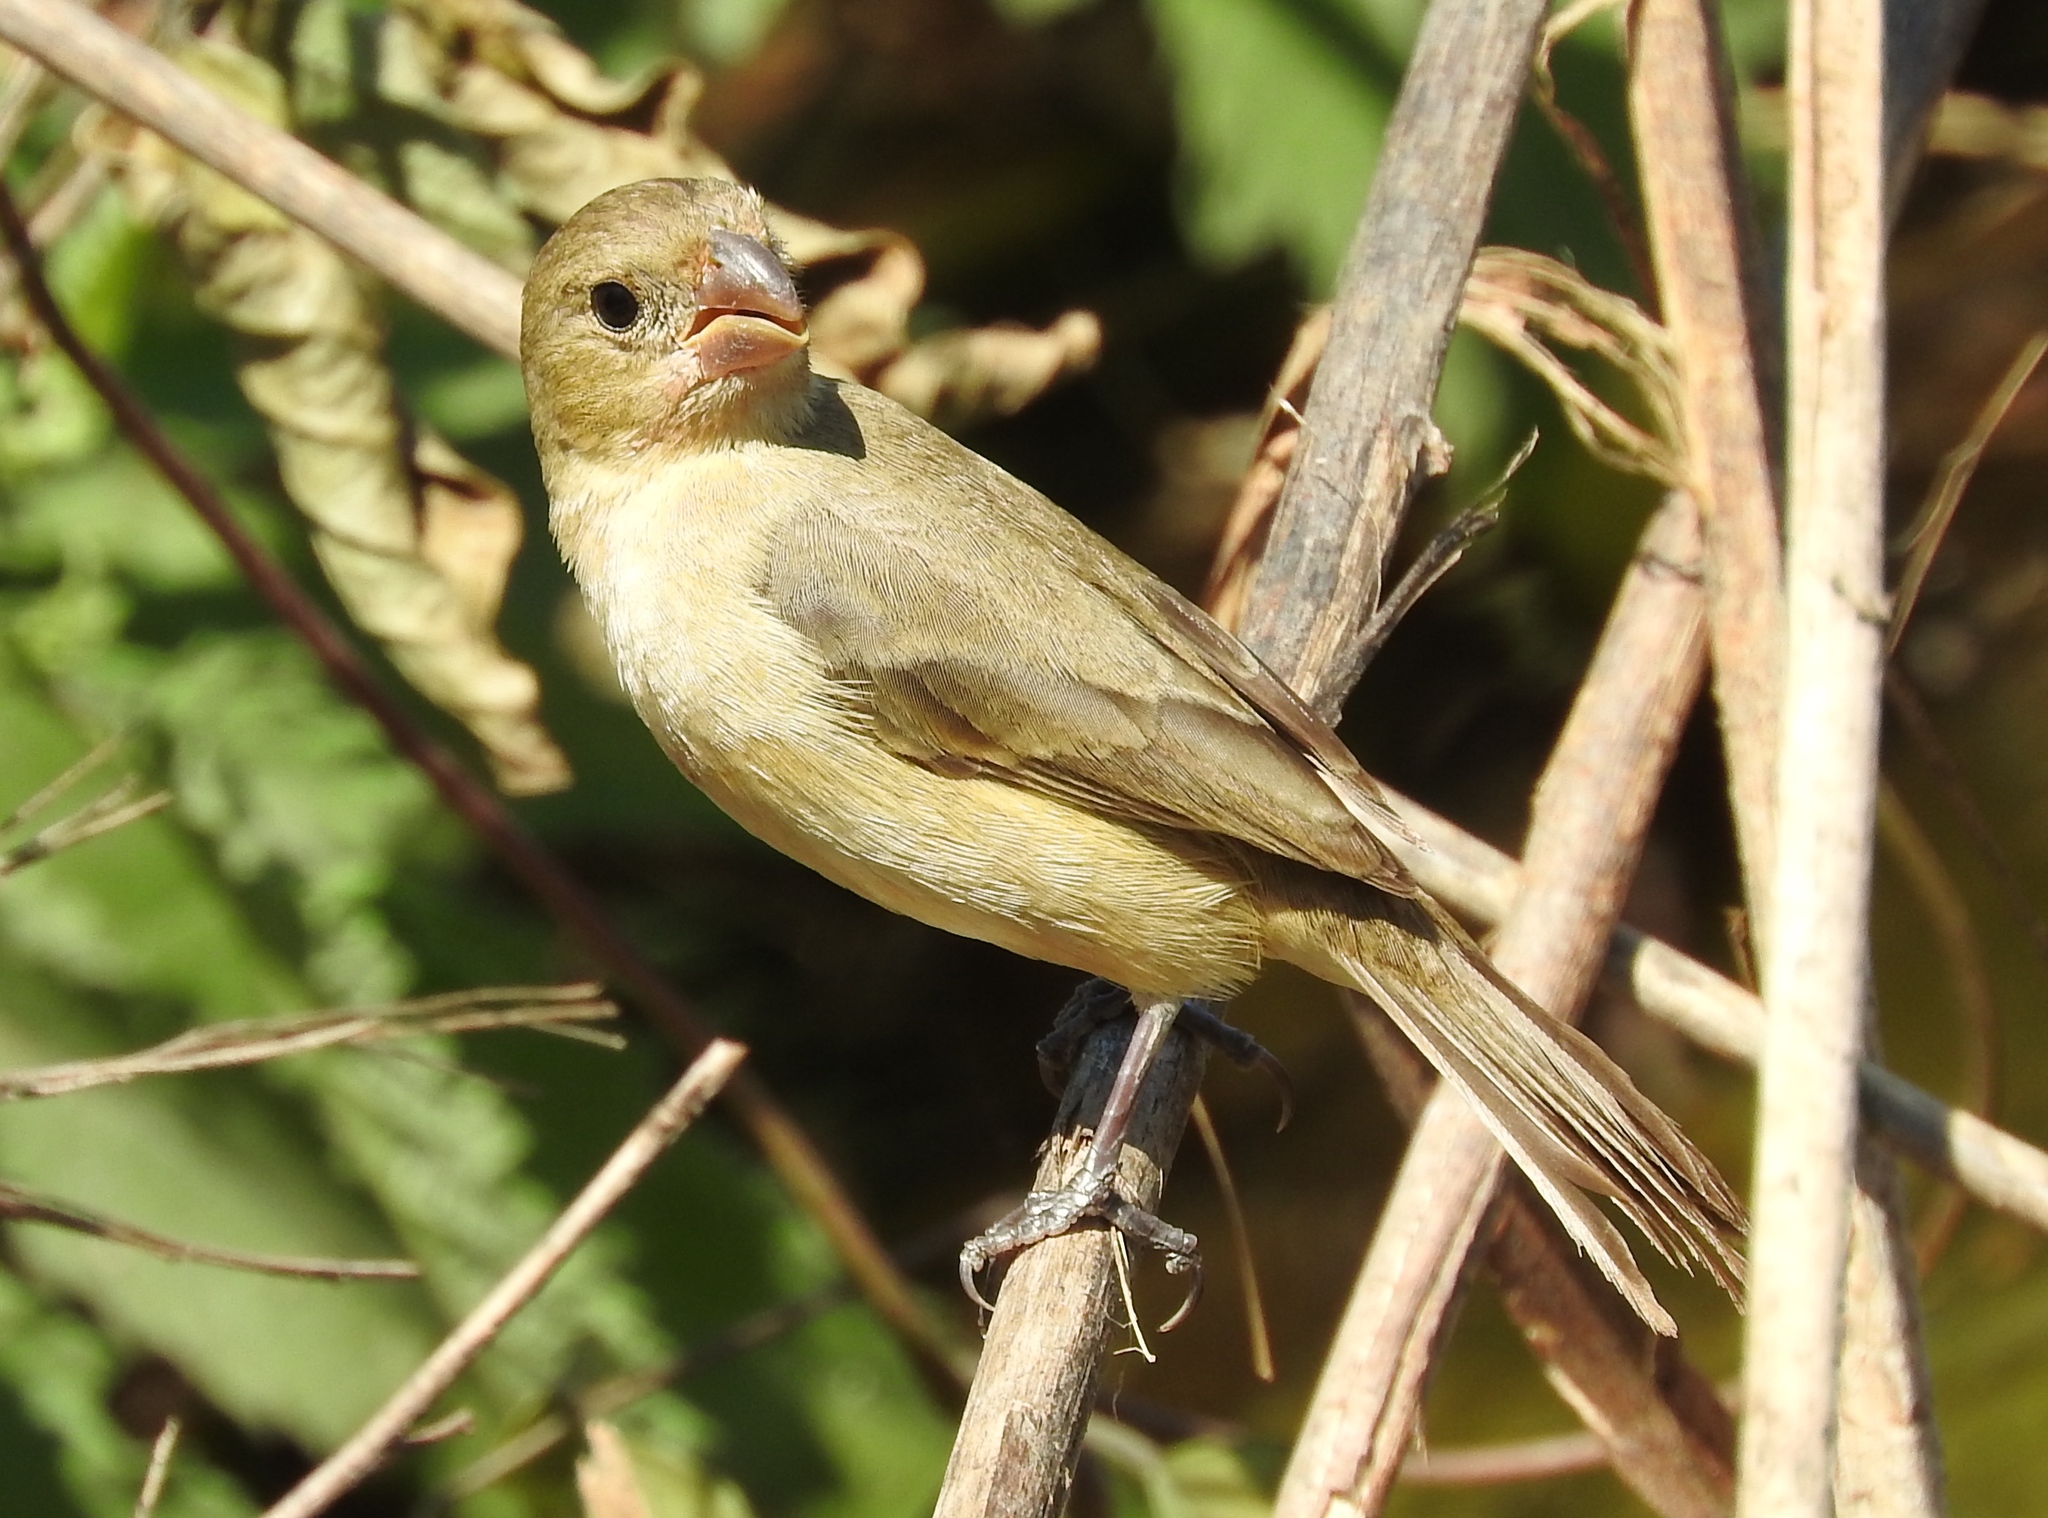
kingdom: Animalia
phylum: Chordata
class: Aves
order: Passeriformes
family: Thraupidae
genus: Sporophila
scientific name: Sporophila torqueola
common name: White-collared seedeater
